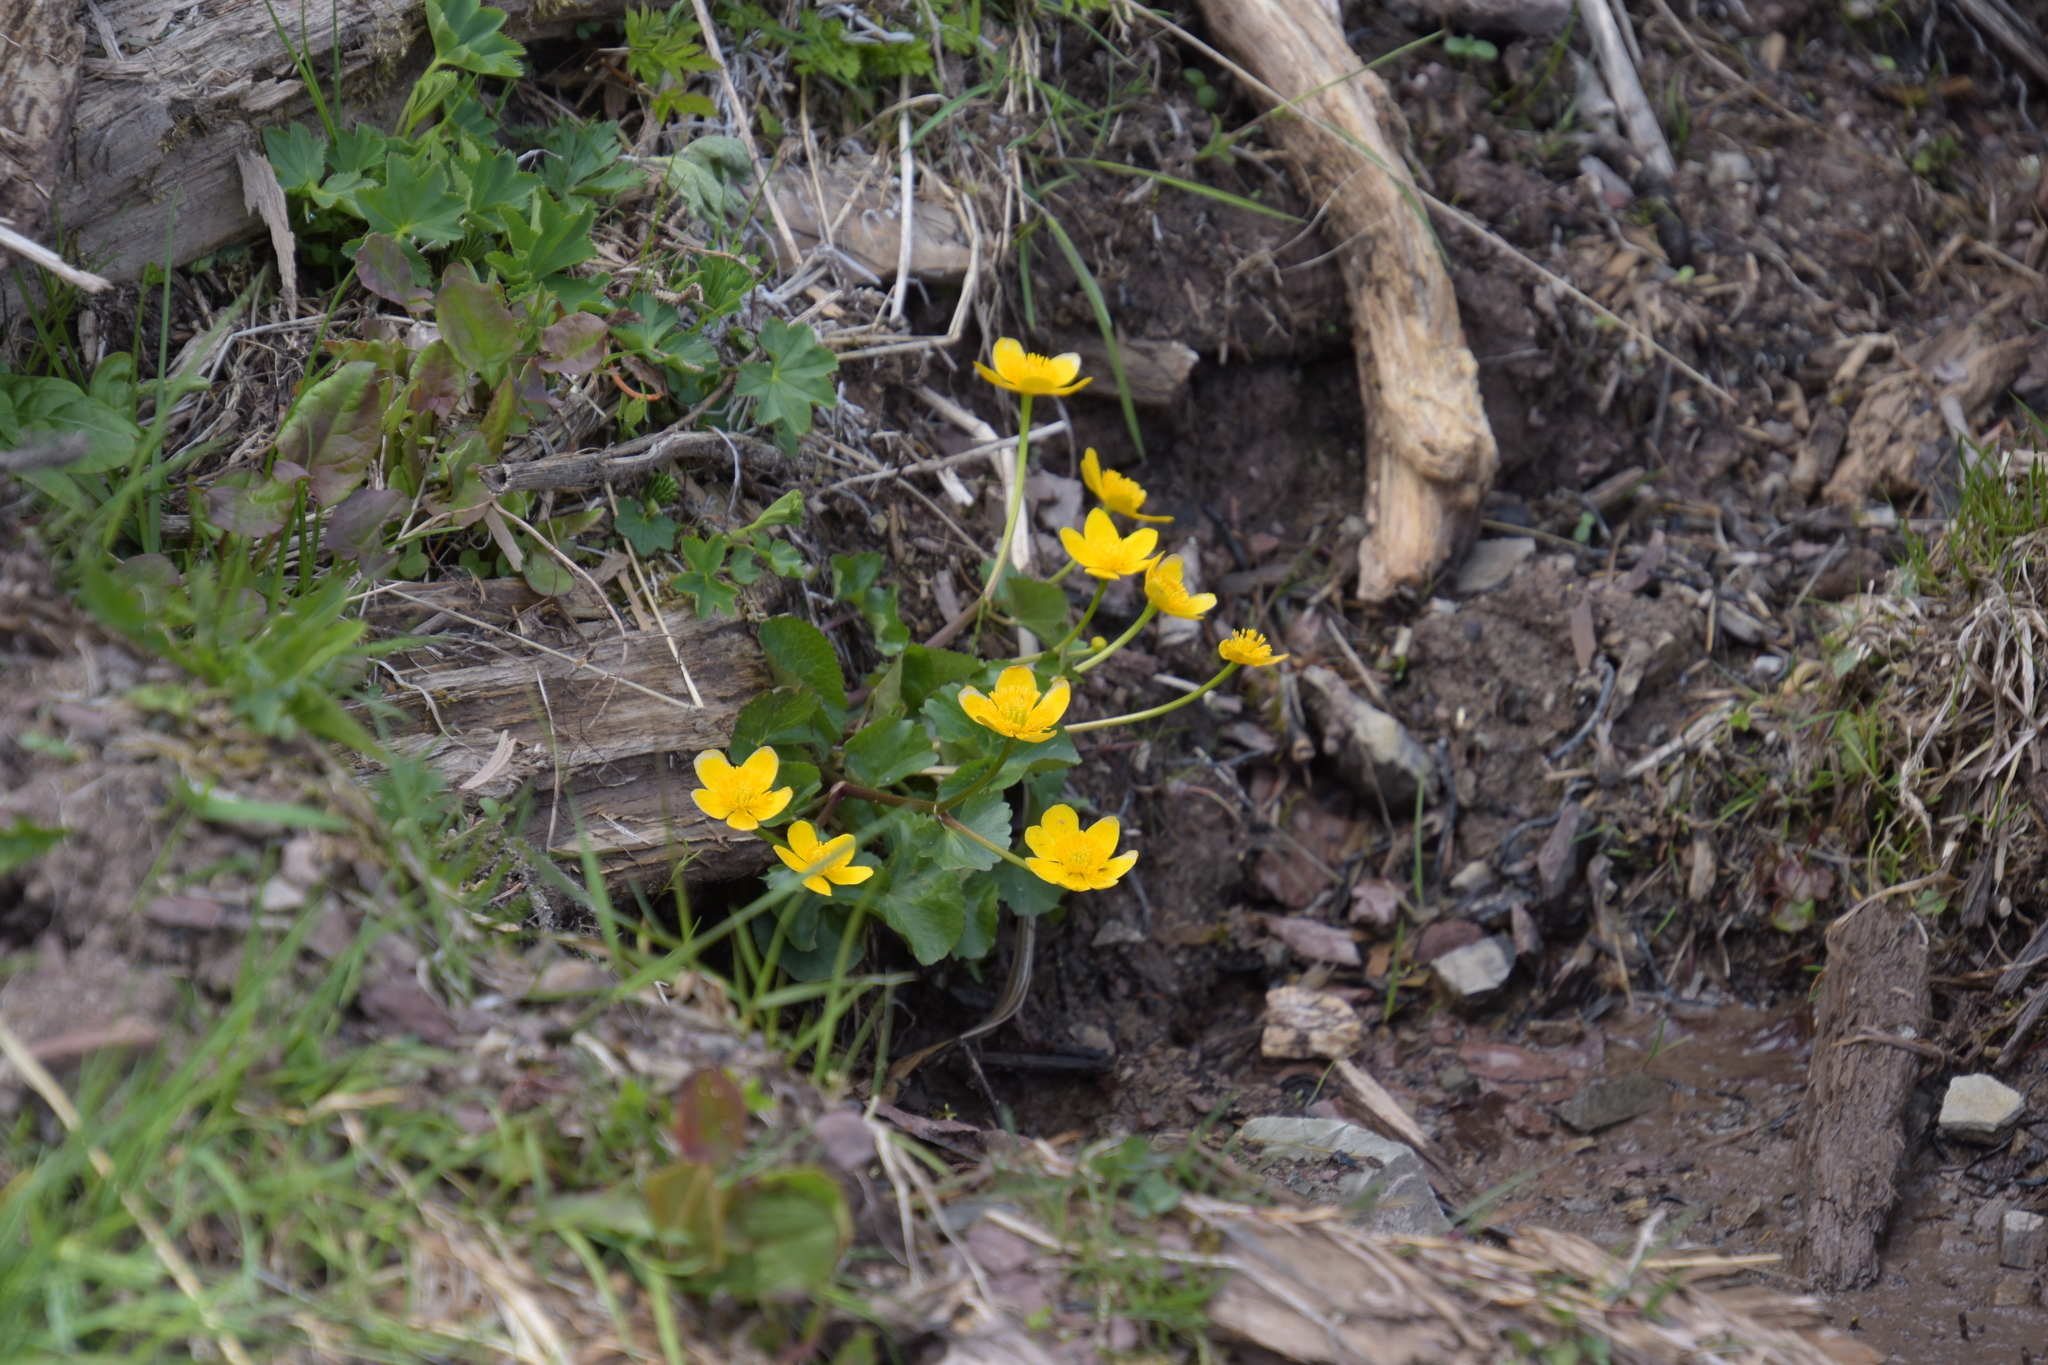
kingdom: Plantae
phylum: Tracheophyta
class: Magnoliopsida
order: Ranunculales
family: Ranunculaceae
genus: Caltha
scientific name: Caltha palustris
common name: Marsh marigold
